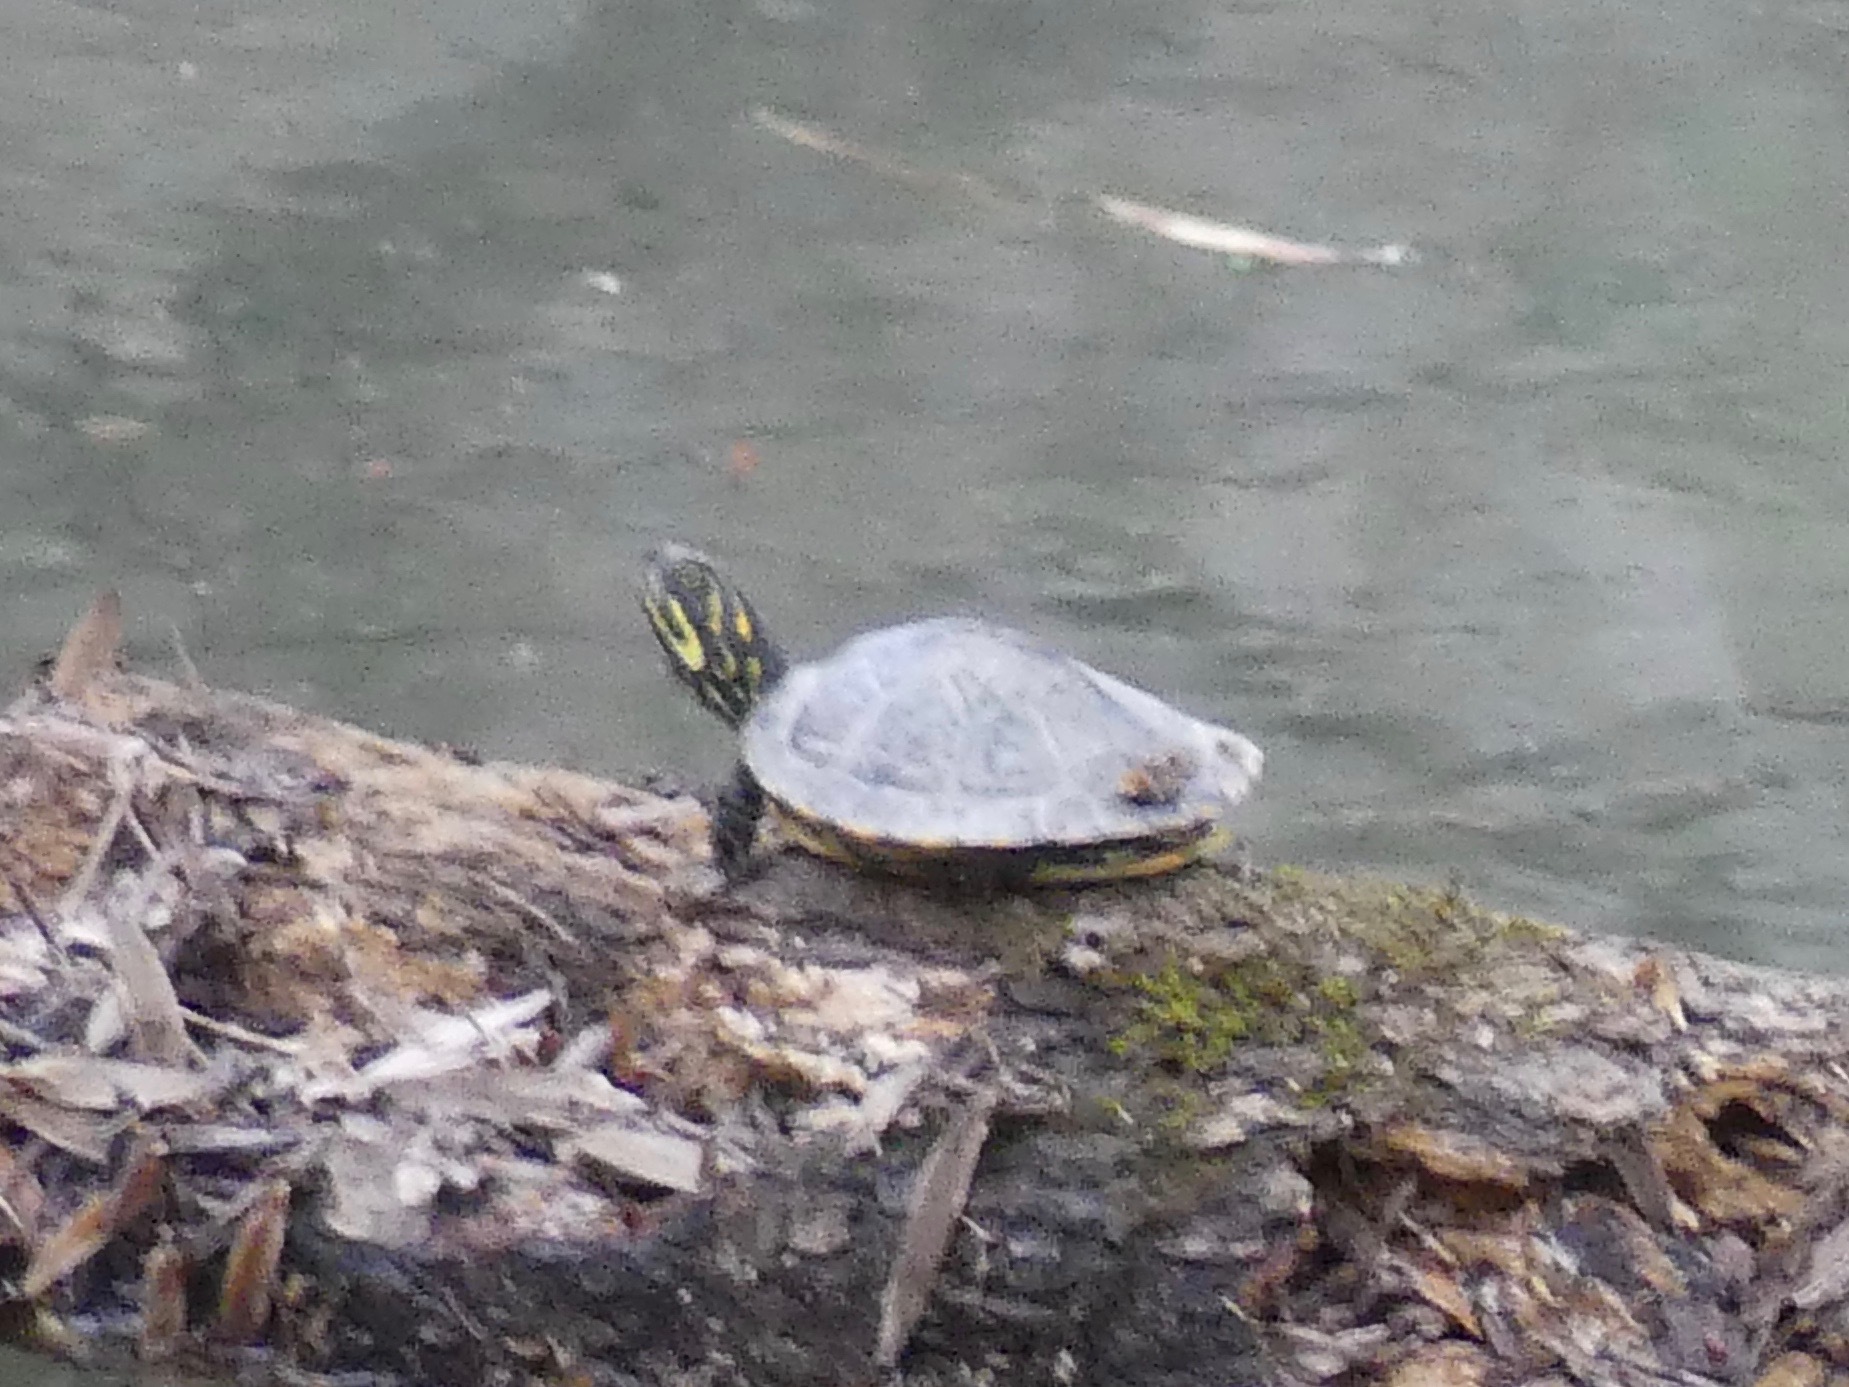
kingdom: Animalia
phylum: Chordata
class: Testudines
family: Emydidae
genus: Pseudemys
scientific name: Pseudemys concinna
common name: Eastern river cooter
